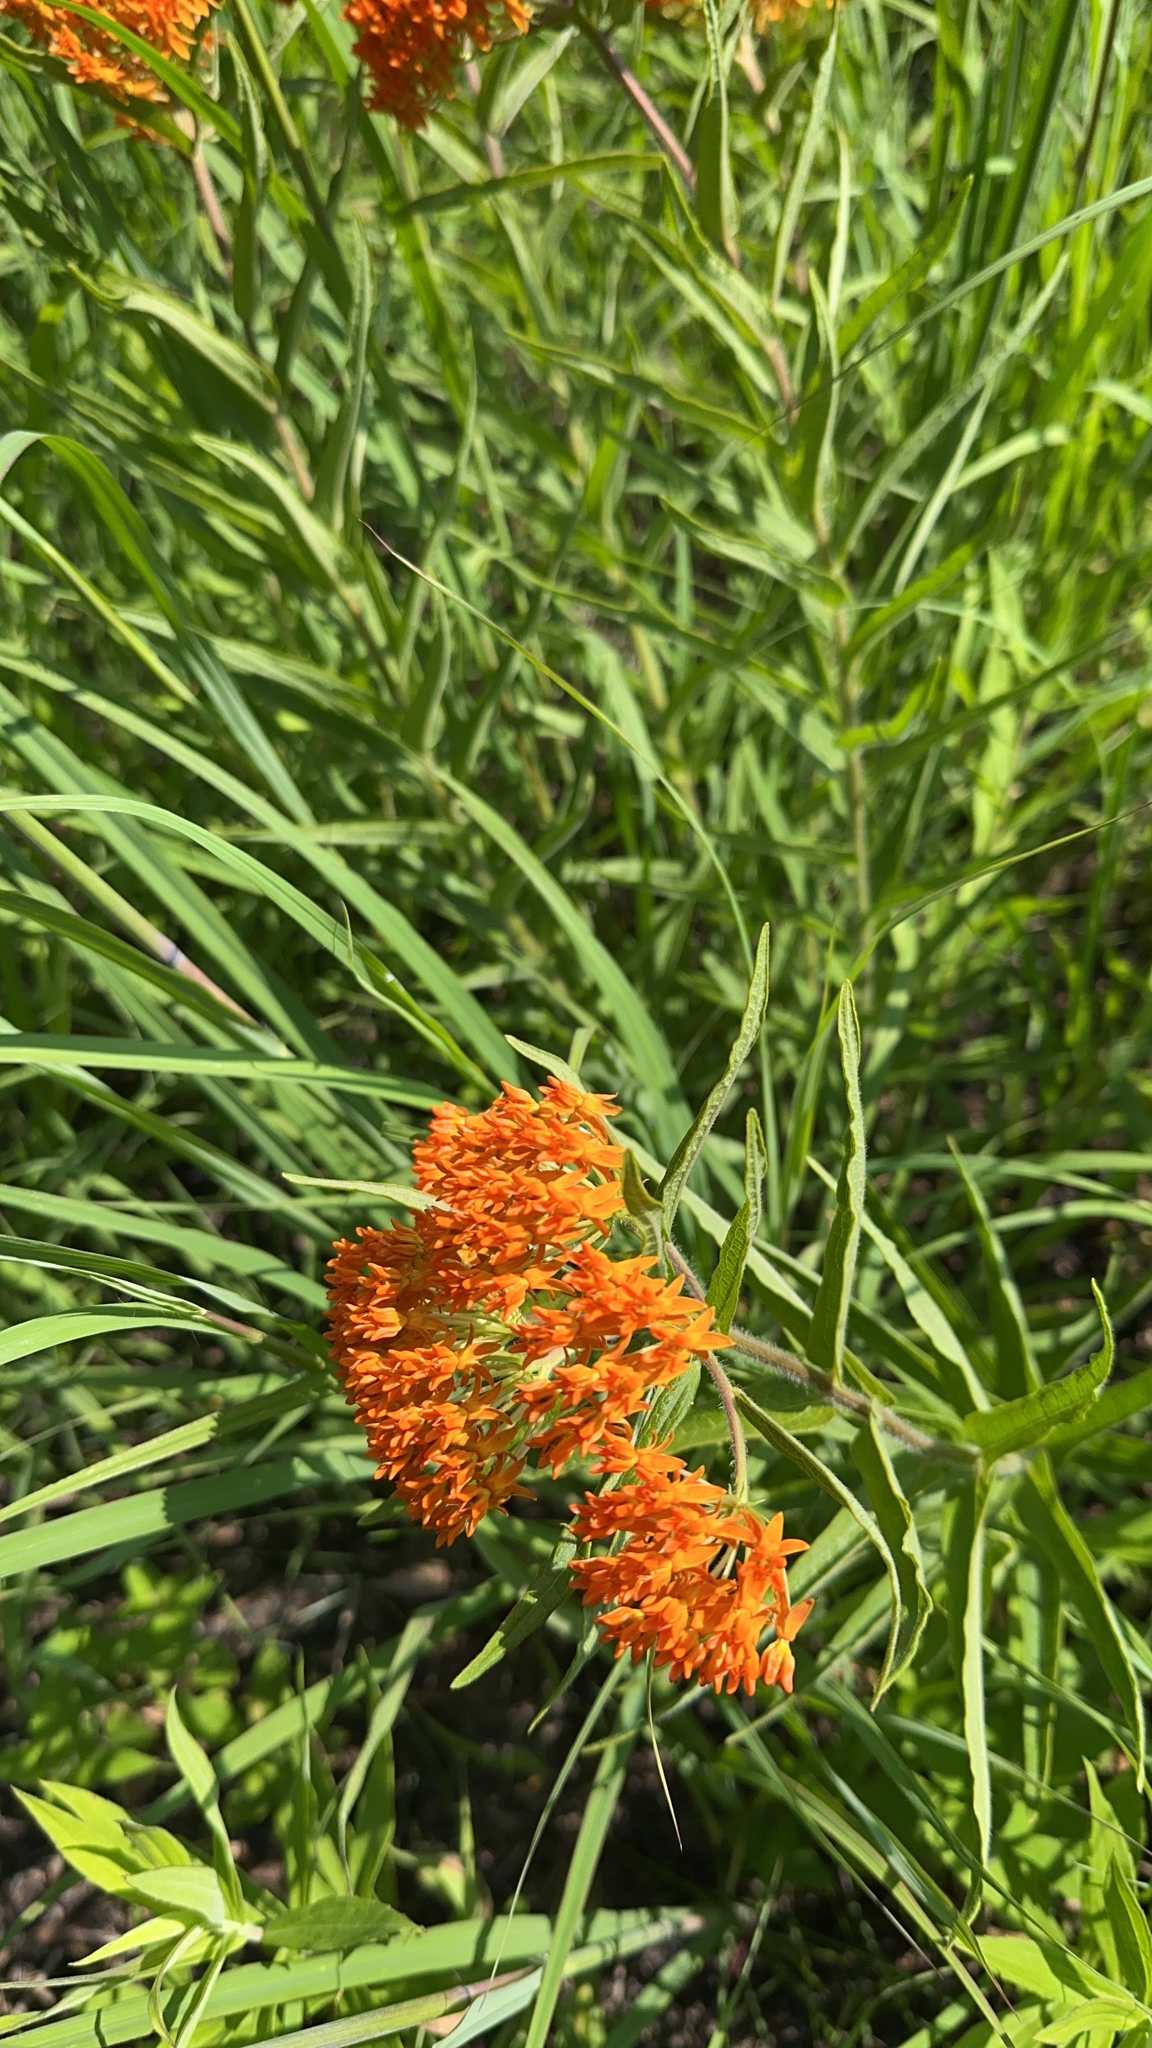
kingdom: Plantae
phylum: Tracheophyta
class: Magnoliopsida
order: Gentianales
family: Apocynaceae
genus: Asclepias
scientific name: Asclepias tuberosa
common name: Butterfly milkweed
